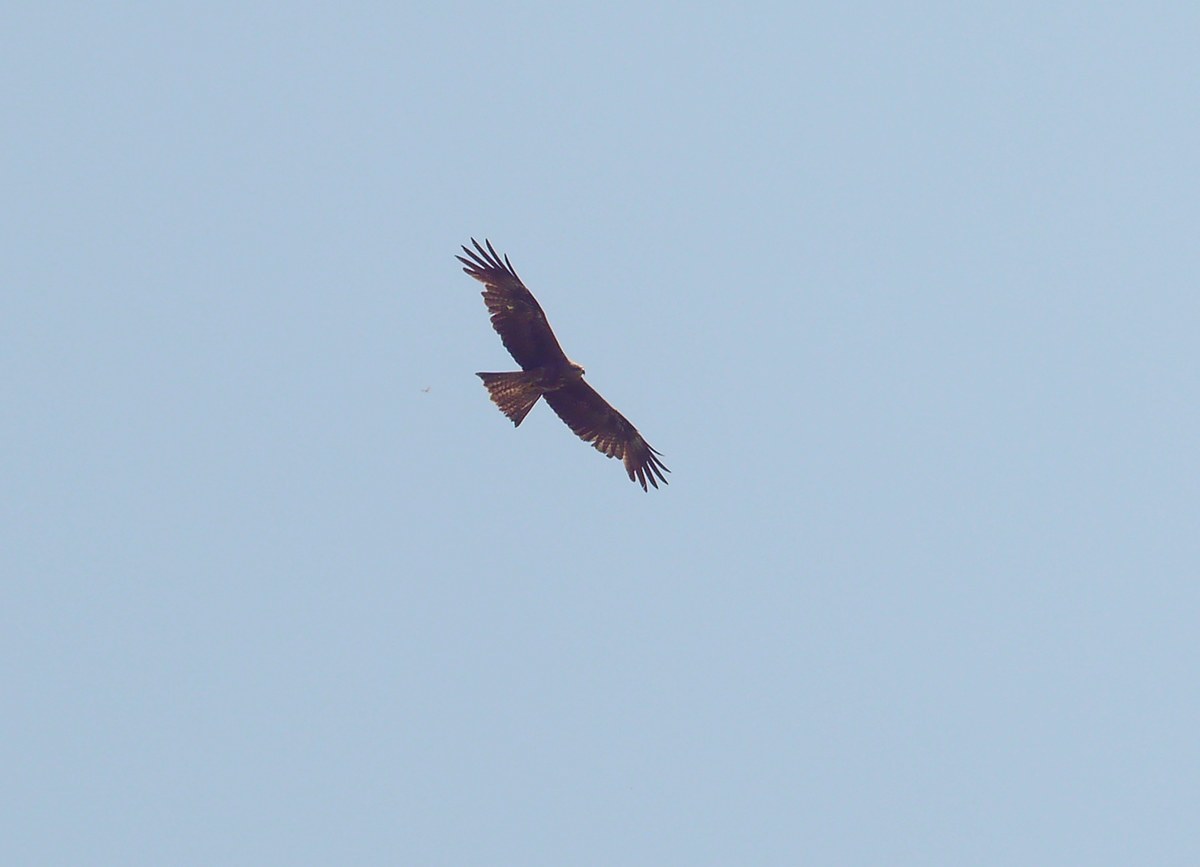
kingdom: Animalia
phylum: Chordata
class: Aves
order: Accipitriformes
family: Accipitridae
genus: Milvus
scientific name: Milvus migrans
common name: Black kite
